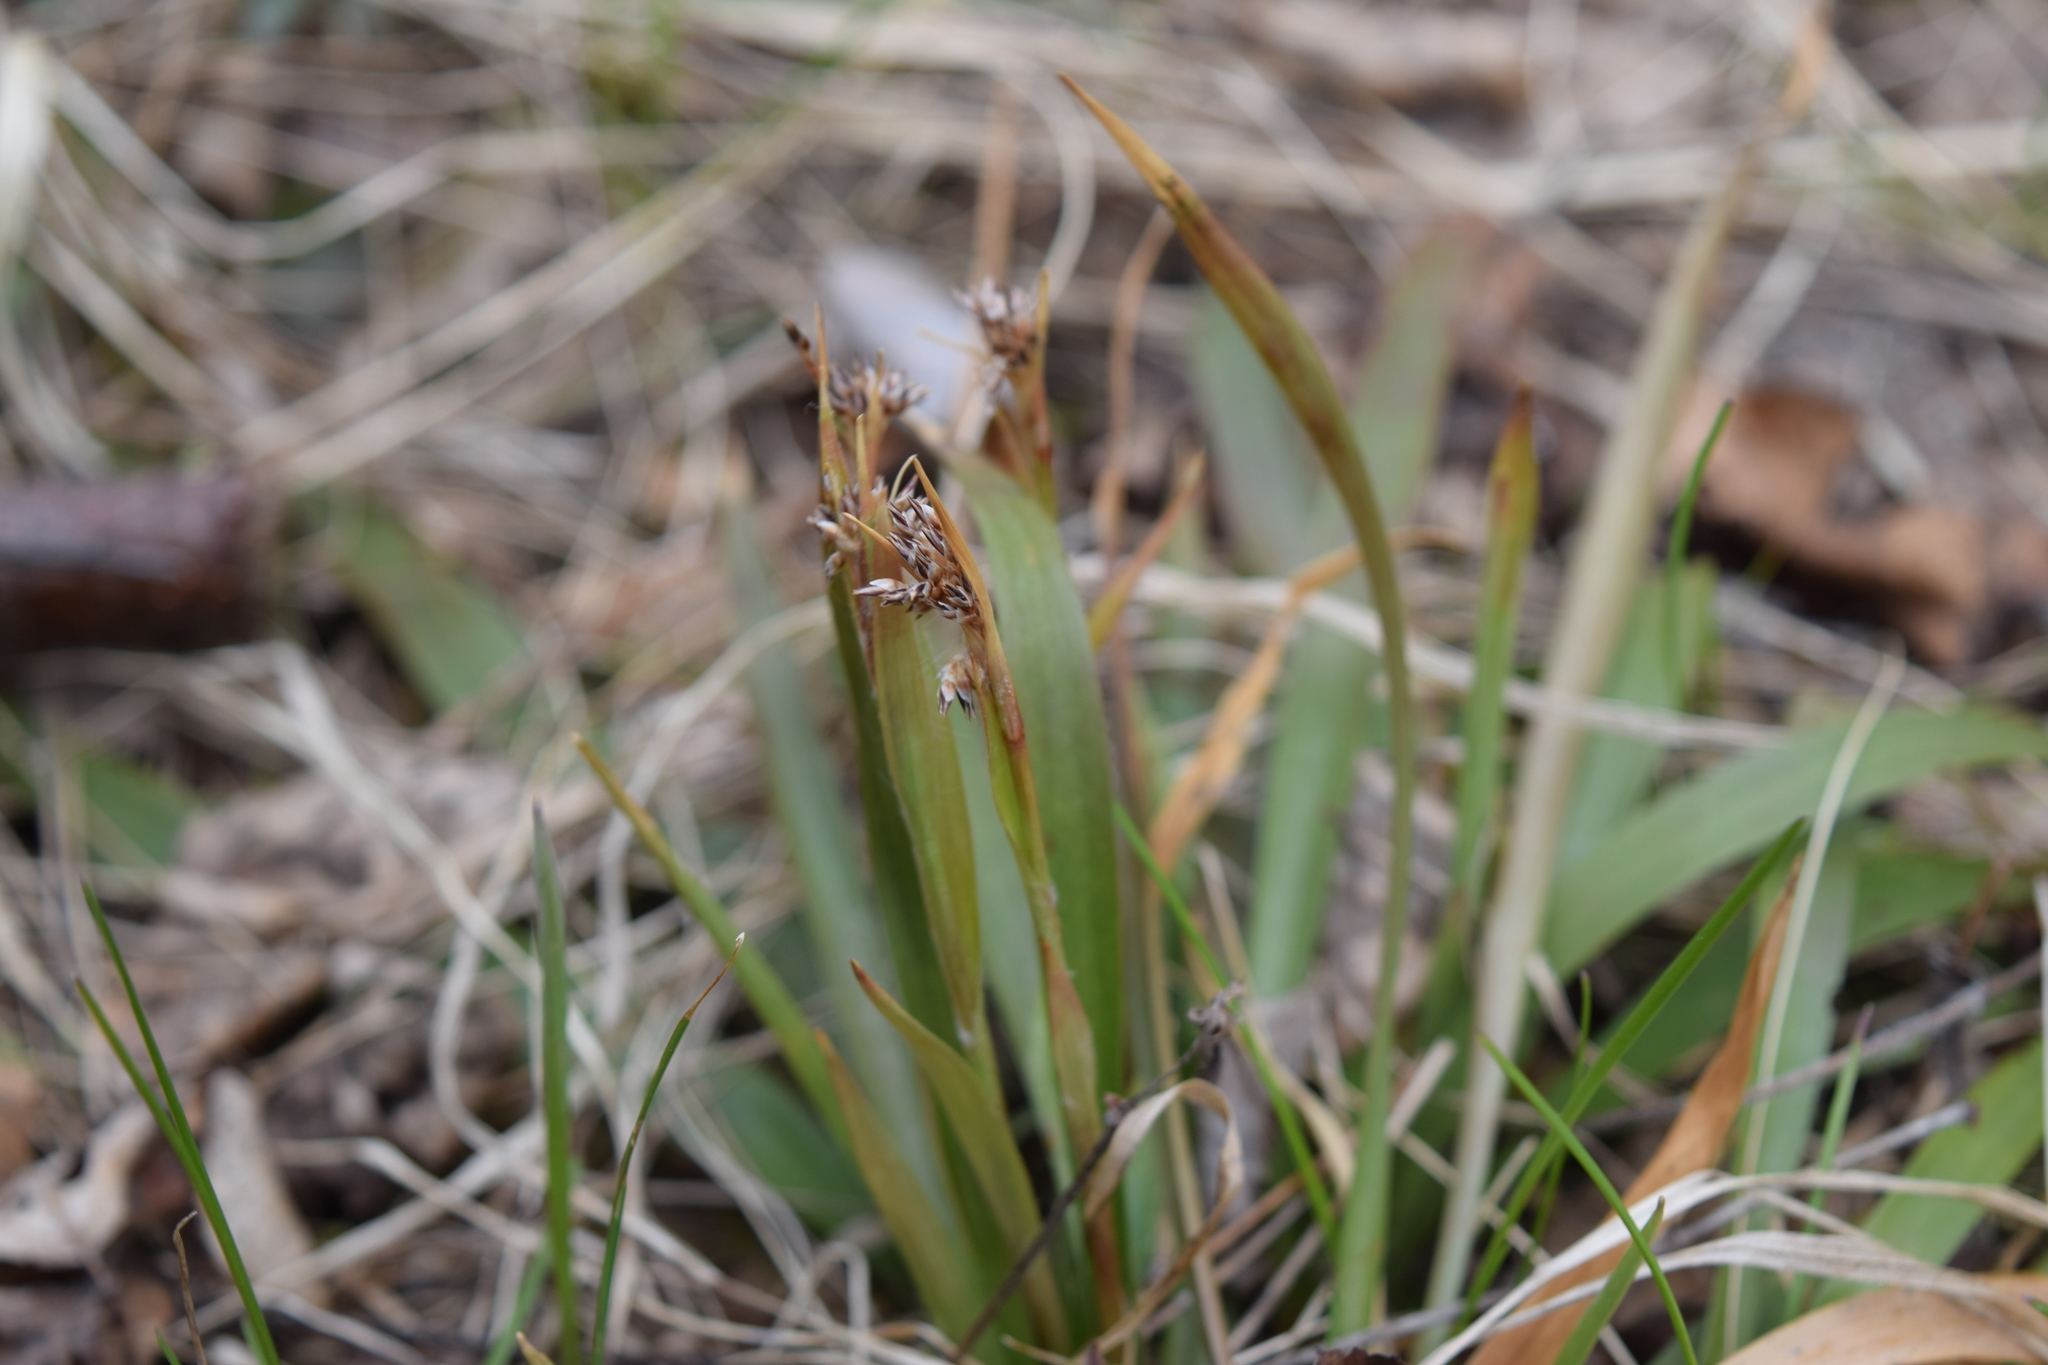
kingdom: Plantae
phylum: Tracheophyta
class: Liliopsida
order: Poales
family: Juncaceae
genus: Luzula
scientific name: Luzula pilosa
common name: Hairy wood-rush
